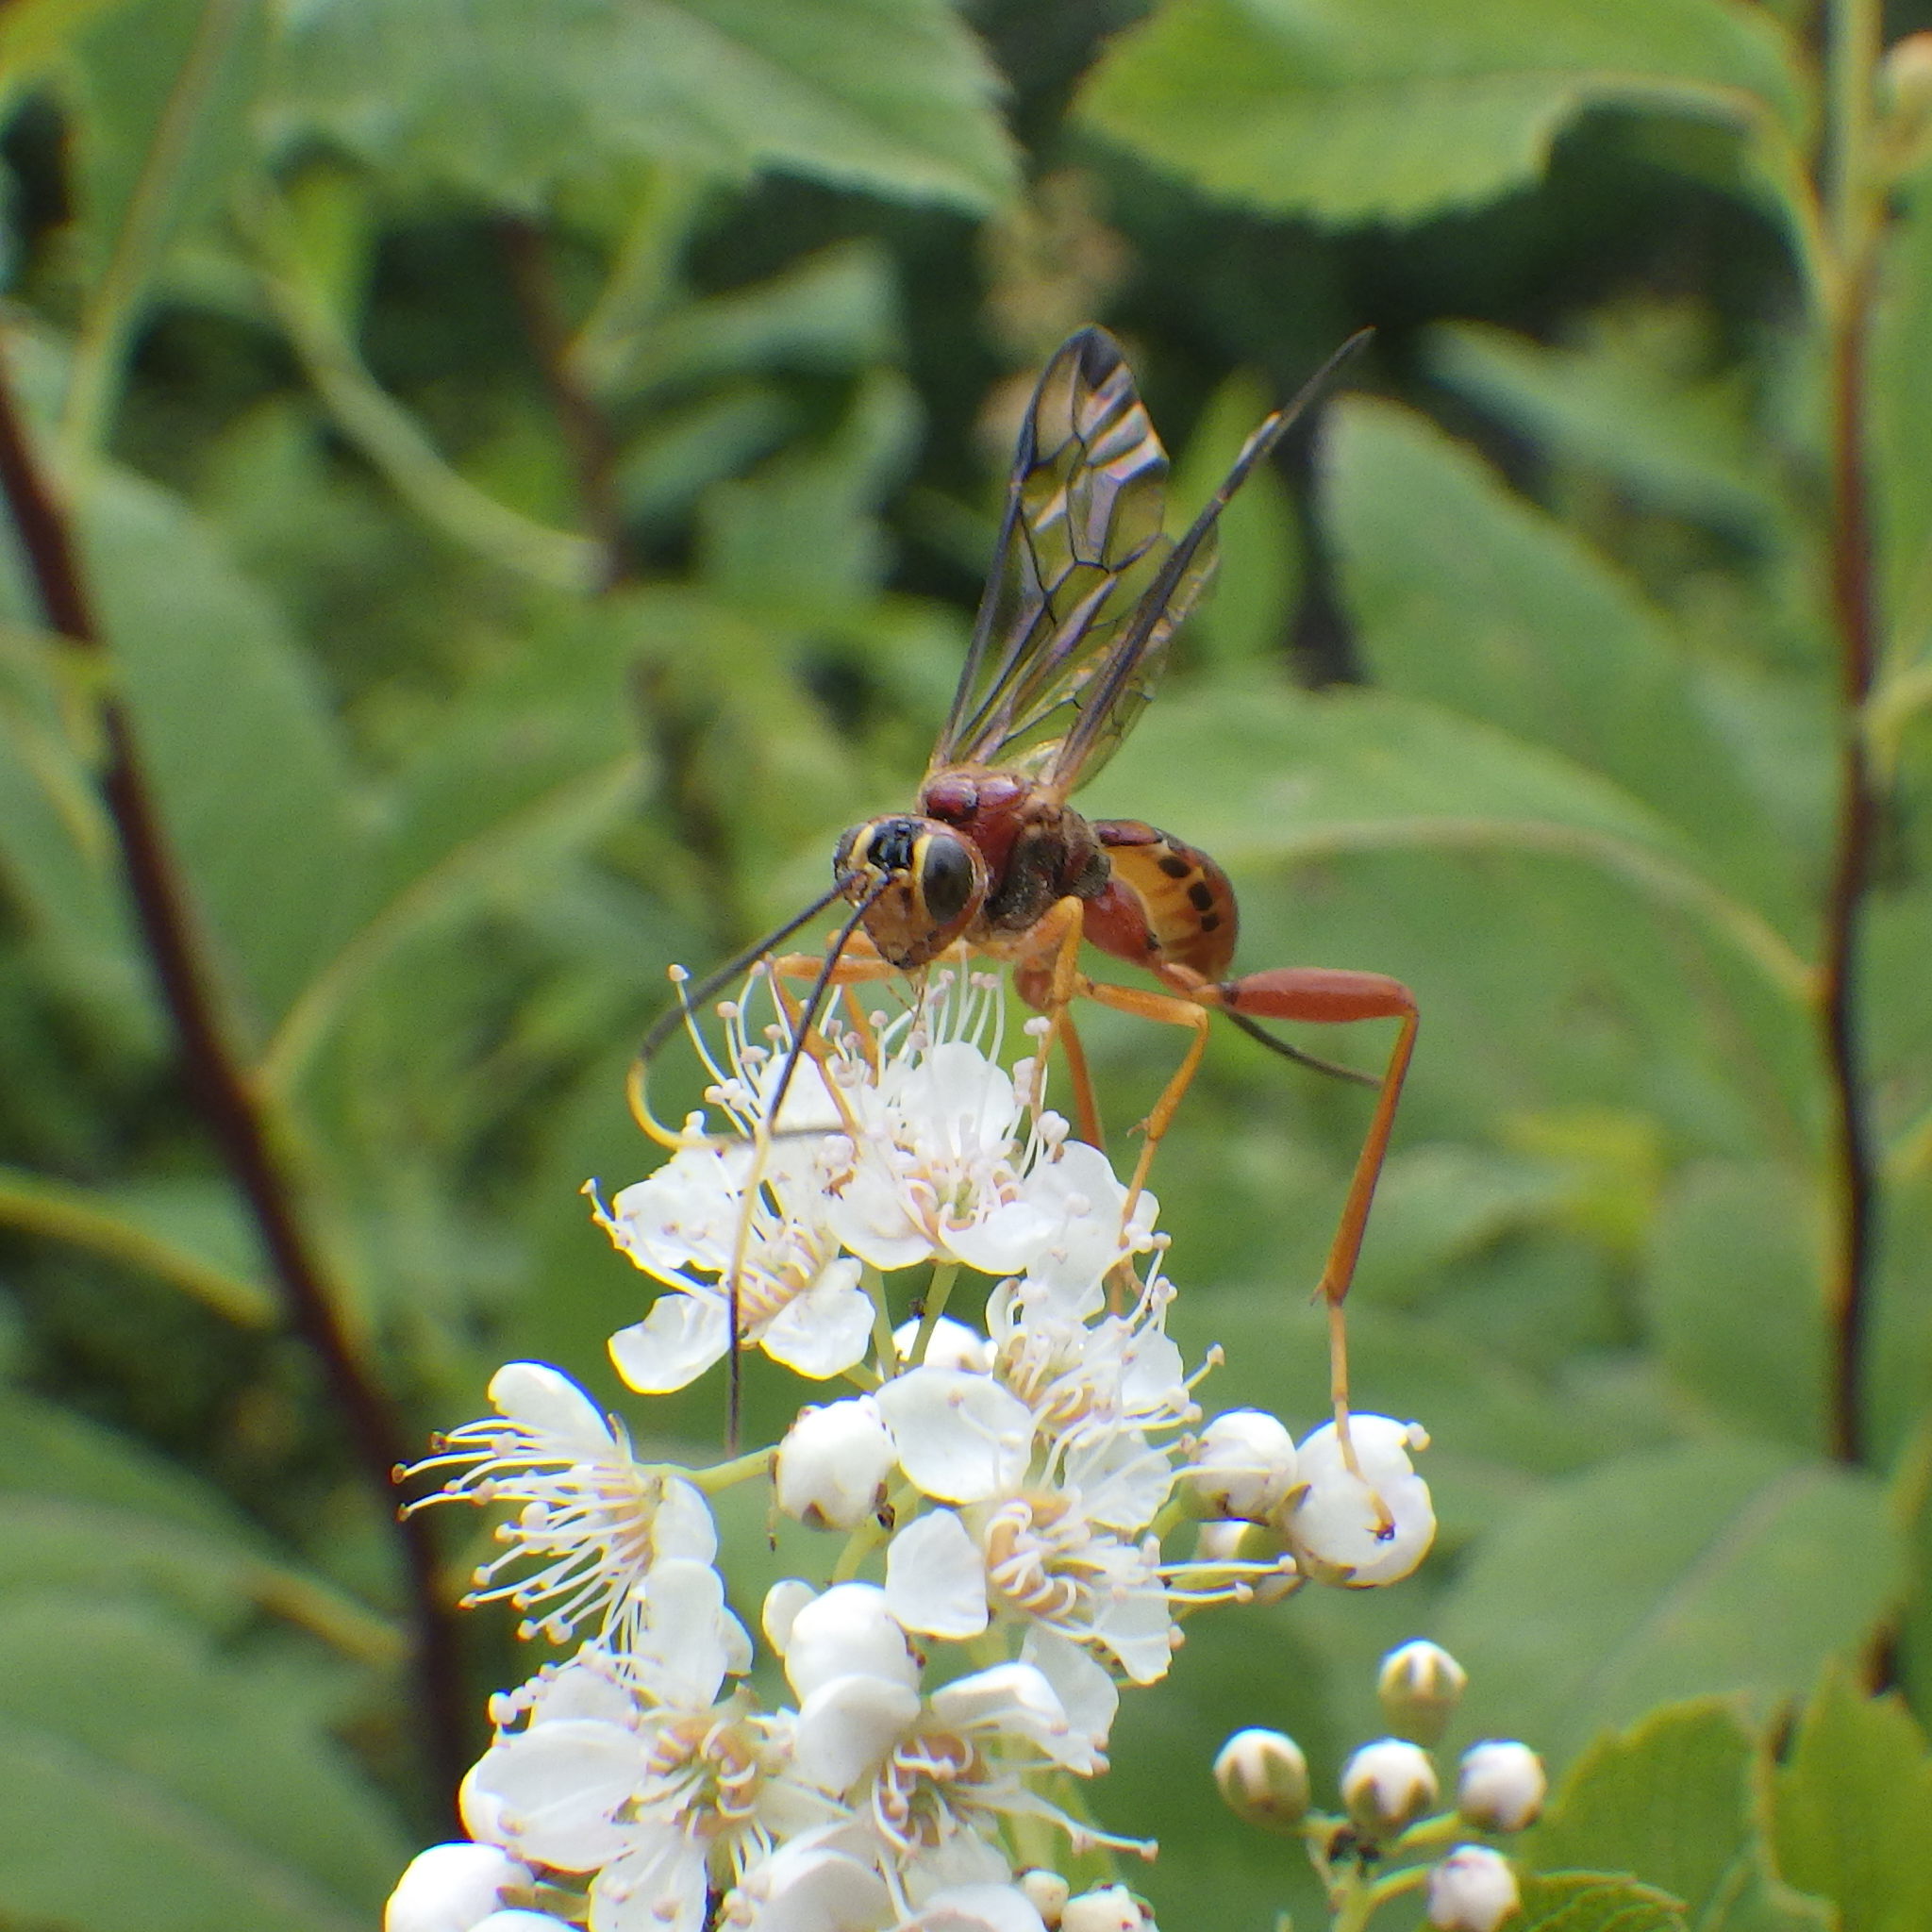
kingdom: Animalia
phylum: Arthropoda
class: Insecta
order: Hymenoptera
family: Ichneumonidae
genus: Spilopteron
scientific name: Spilopteron vicinum
